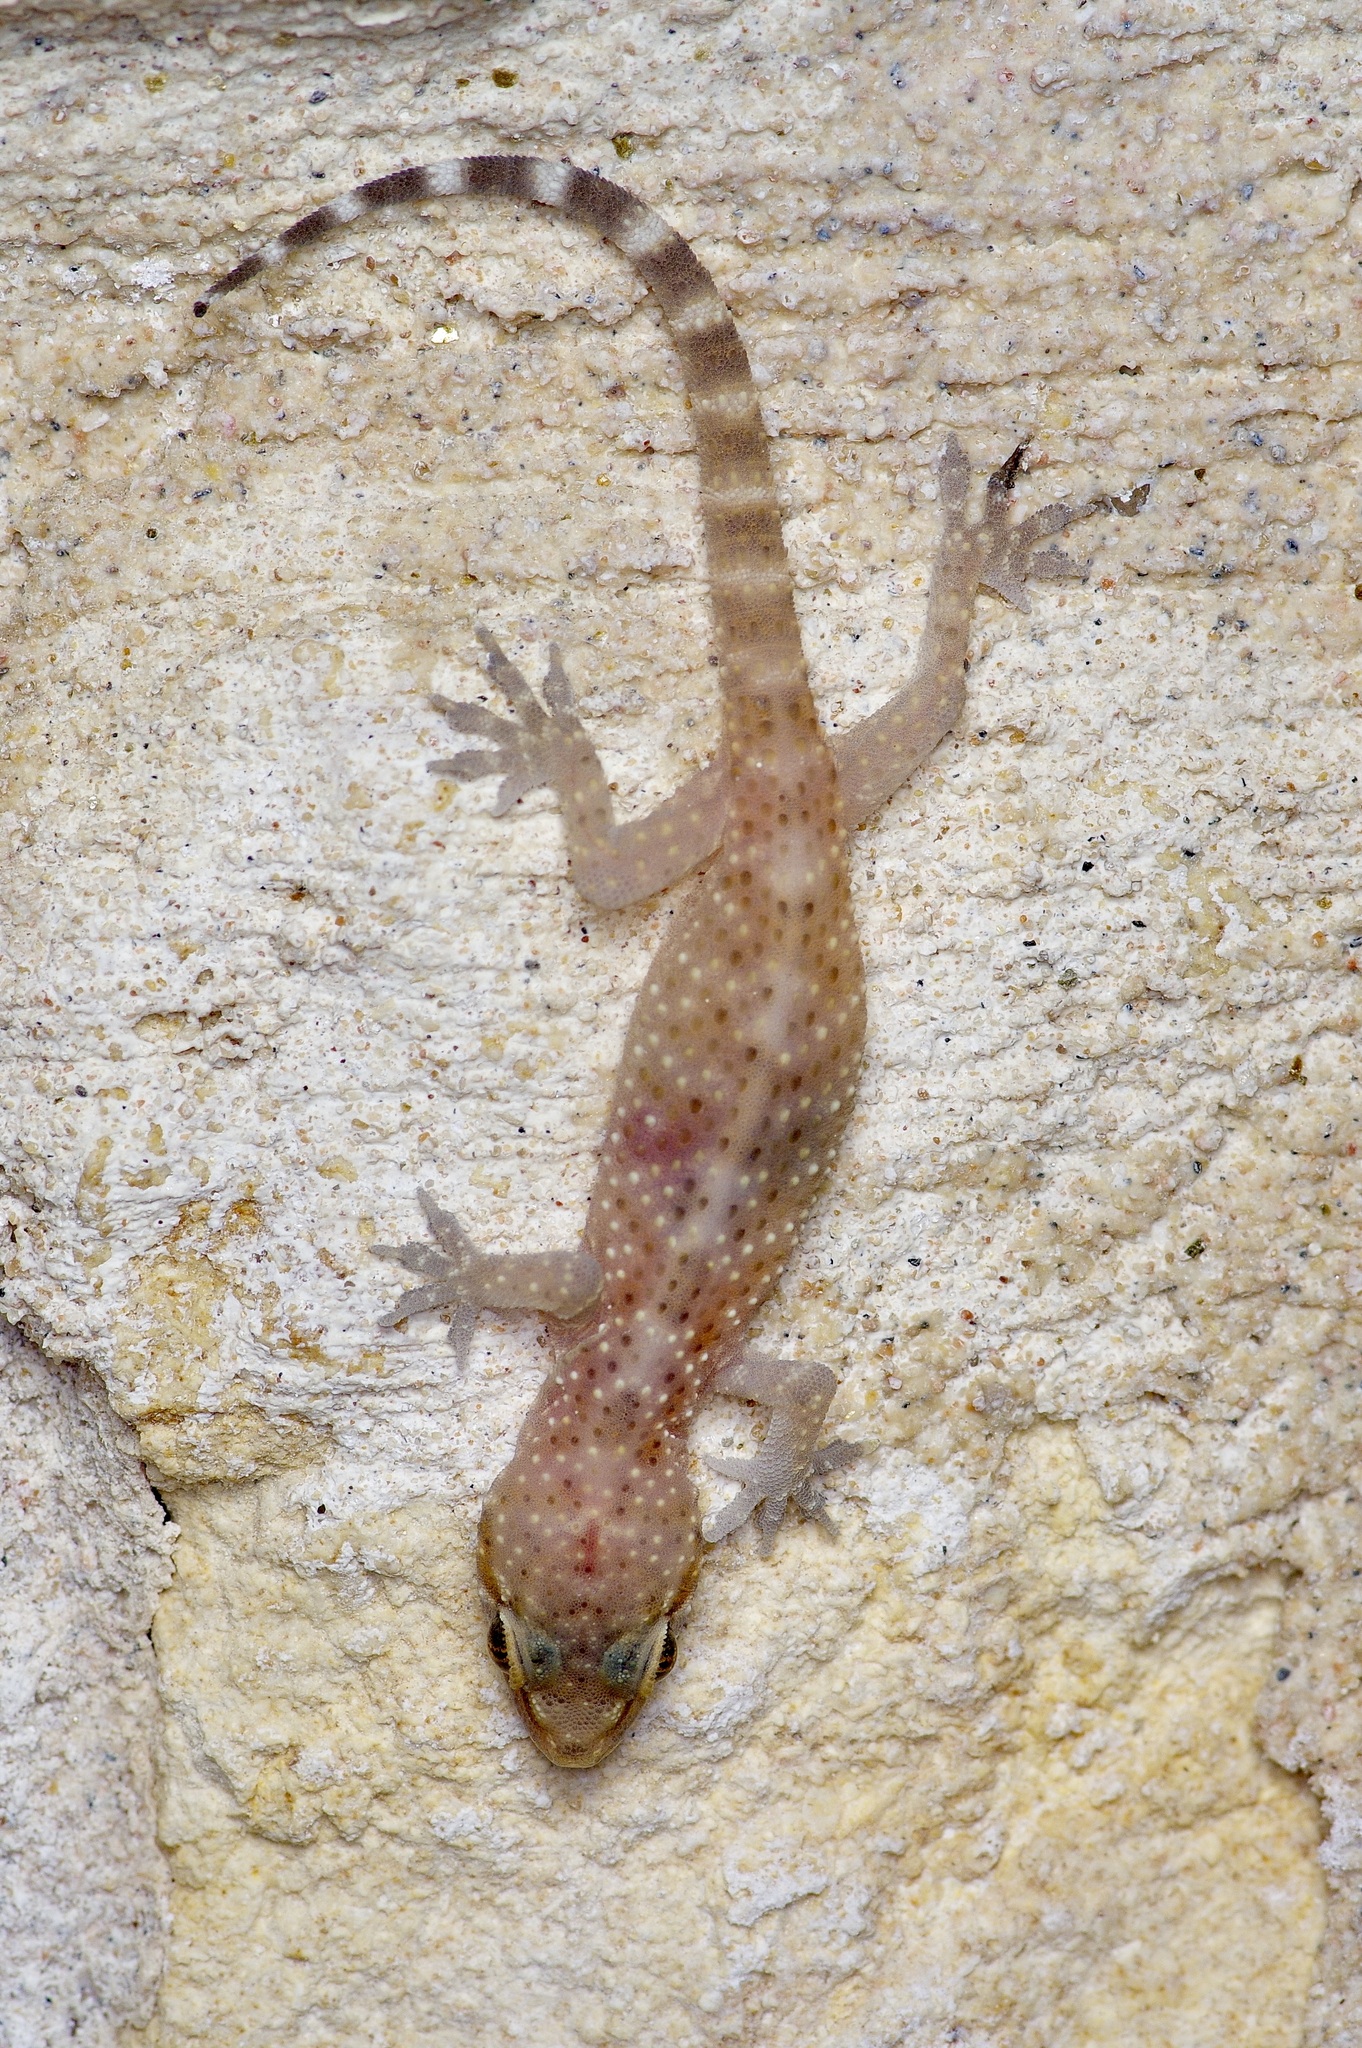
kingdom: Animalia
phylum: Chordata
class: Squamata
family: Gekkonidae
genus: Hemidactylus
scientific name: Hemidactylus turcicus
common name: Turkish gecko
